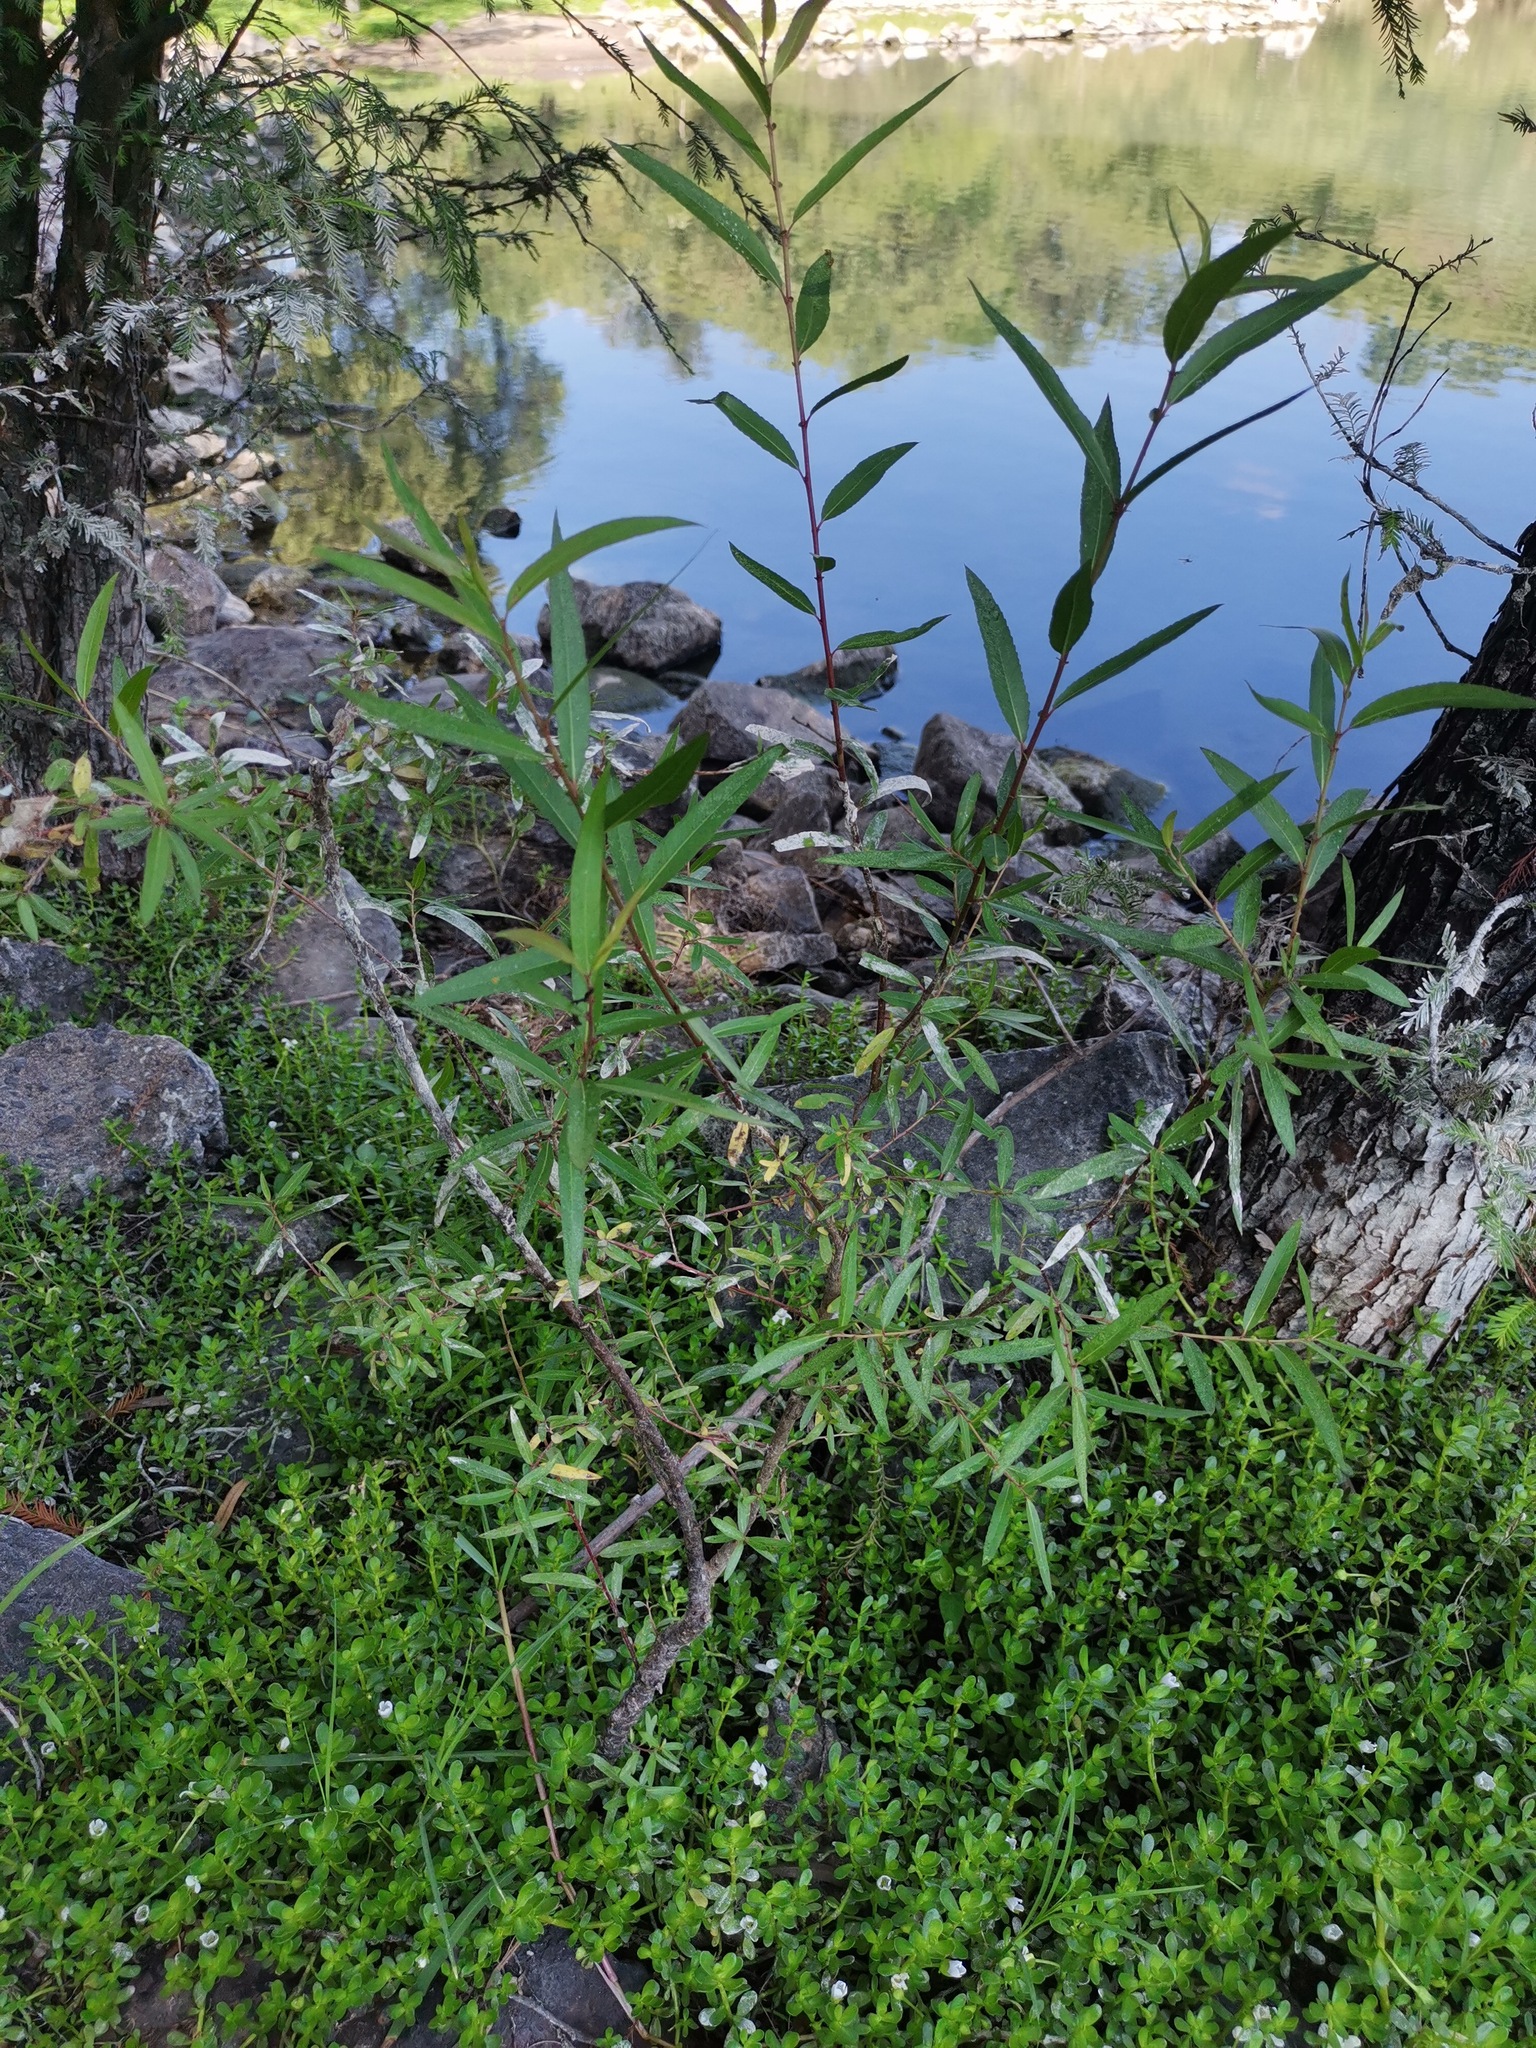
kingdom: Plantae
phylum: Tracheophyta
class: Magnoliopsida
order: Malpighiales
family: Salicaceae
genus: Salix
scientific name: Salix humboldtiana
